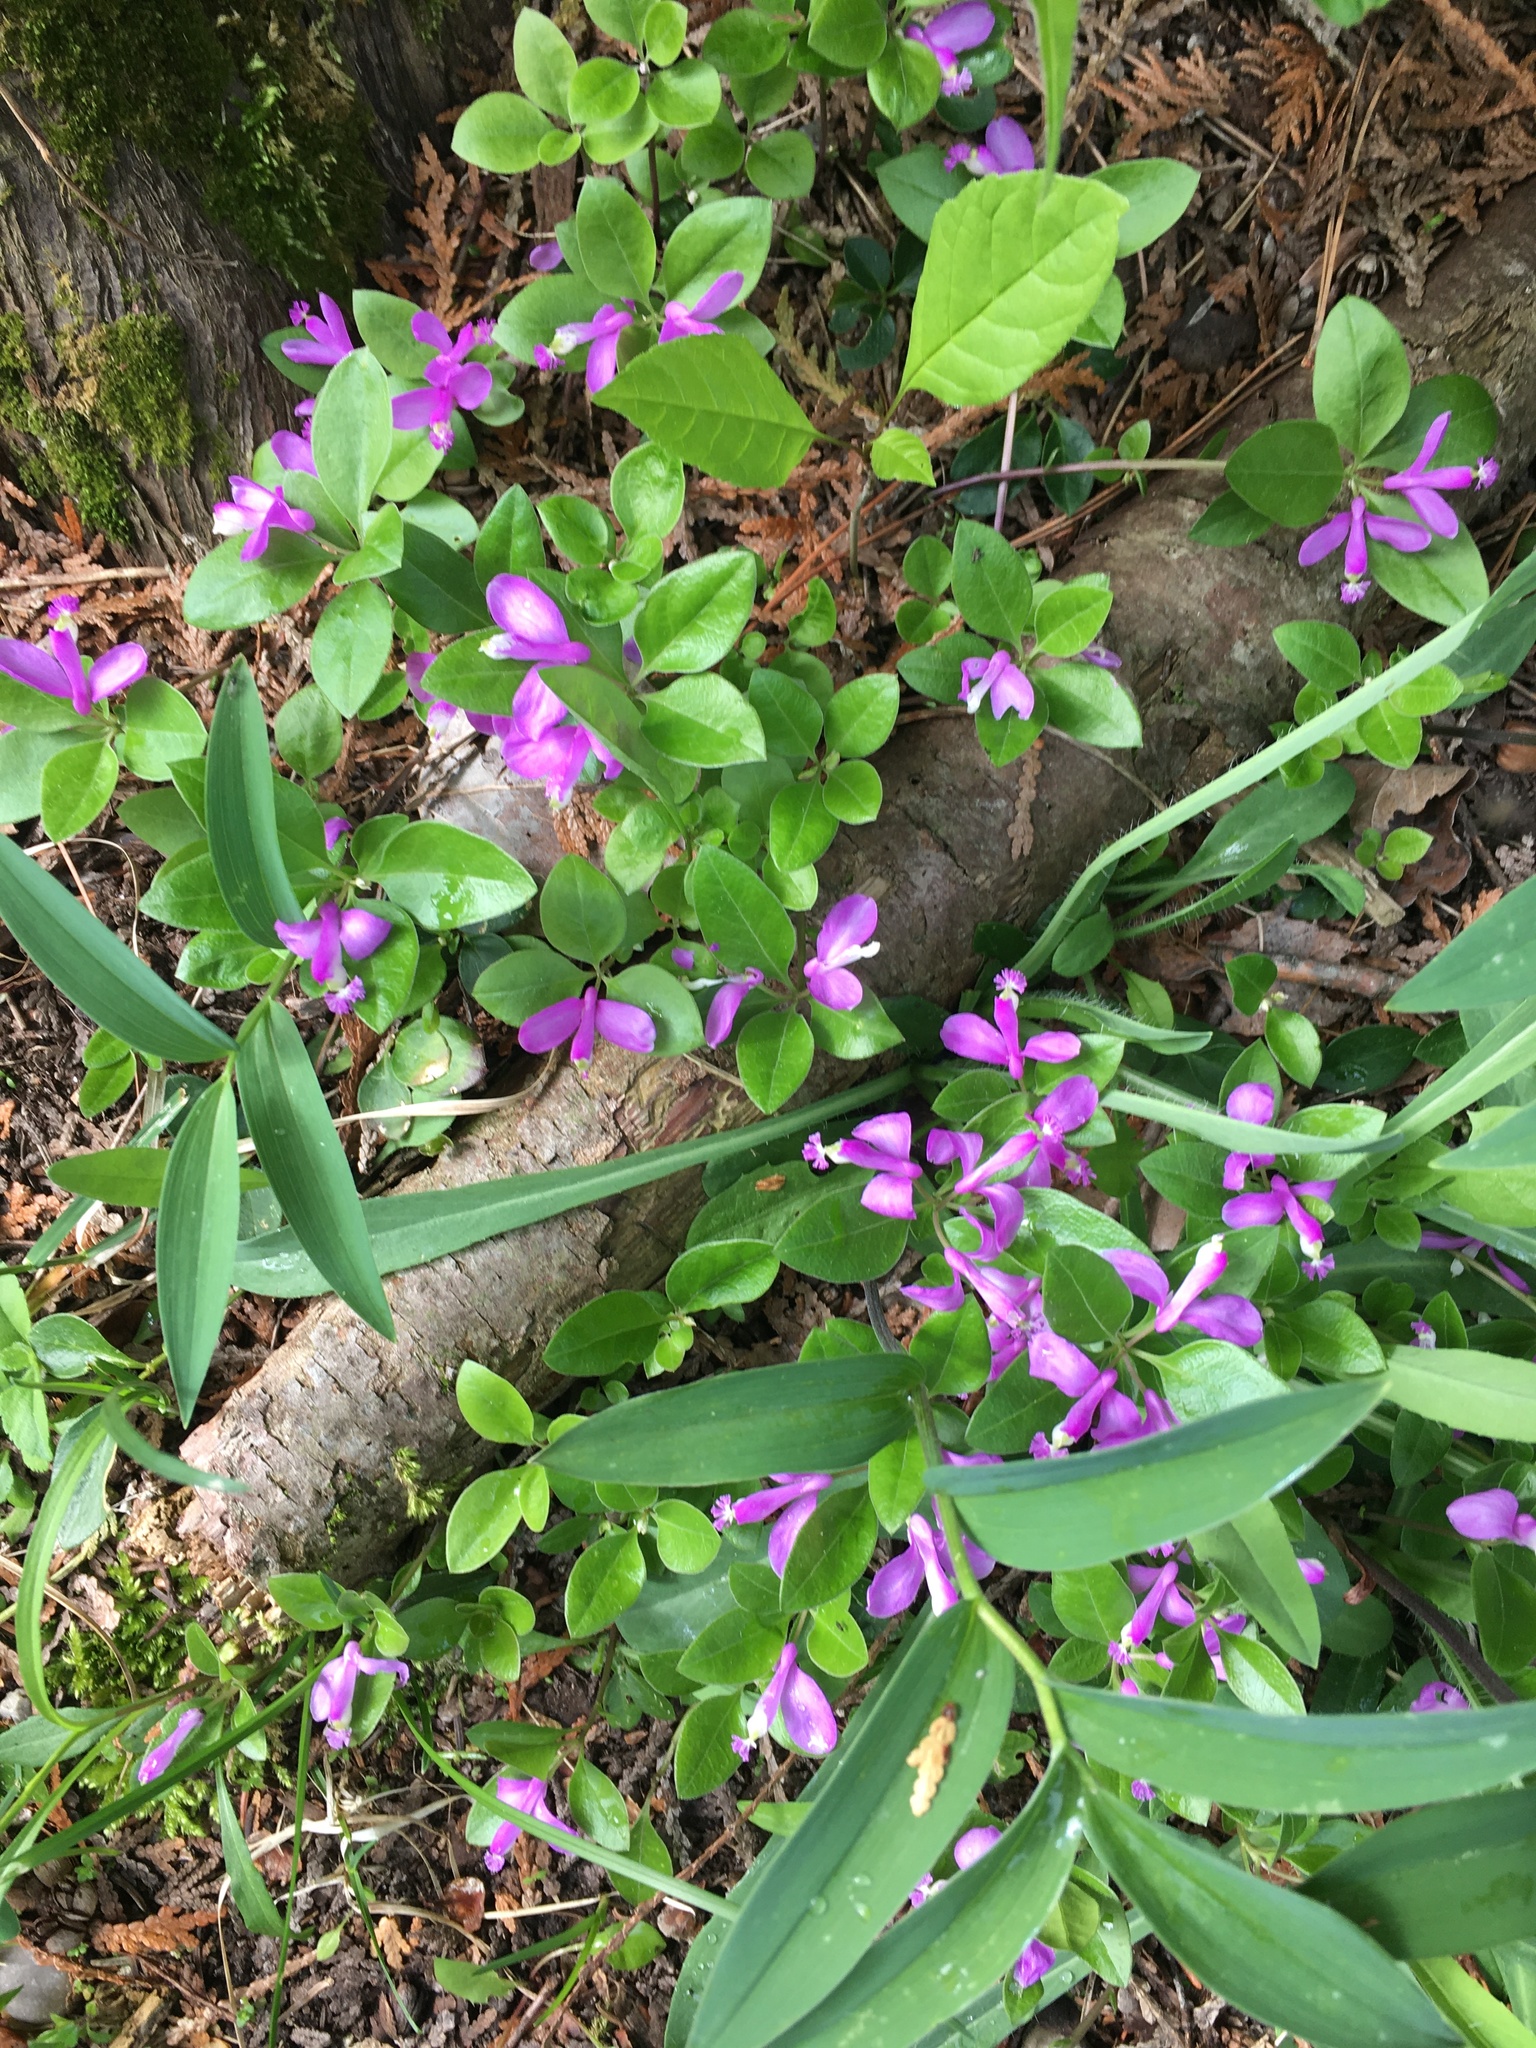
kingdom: Plantae
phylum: Tracheophyta
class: Magnoliopsida
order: Fabales
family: Polygalaceae
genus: Polygaloides
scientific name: Polygaloides paucifolia
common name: Bird-on-the-wing
